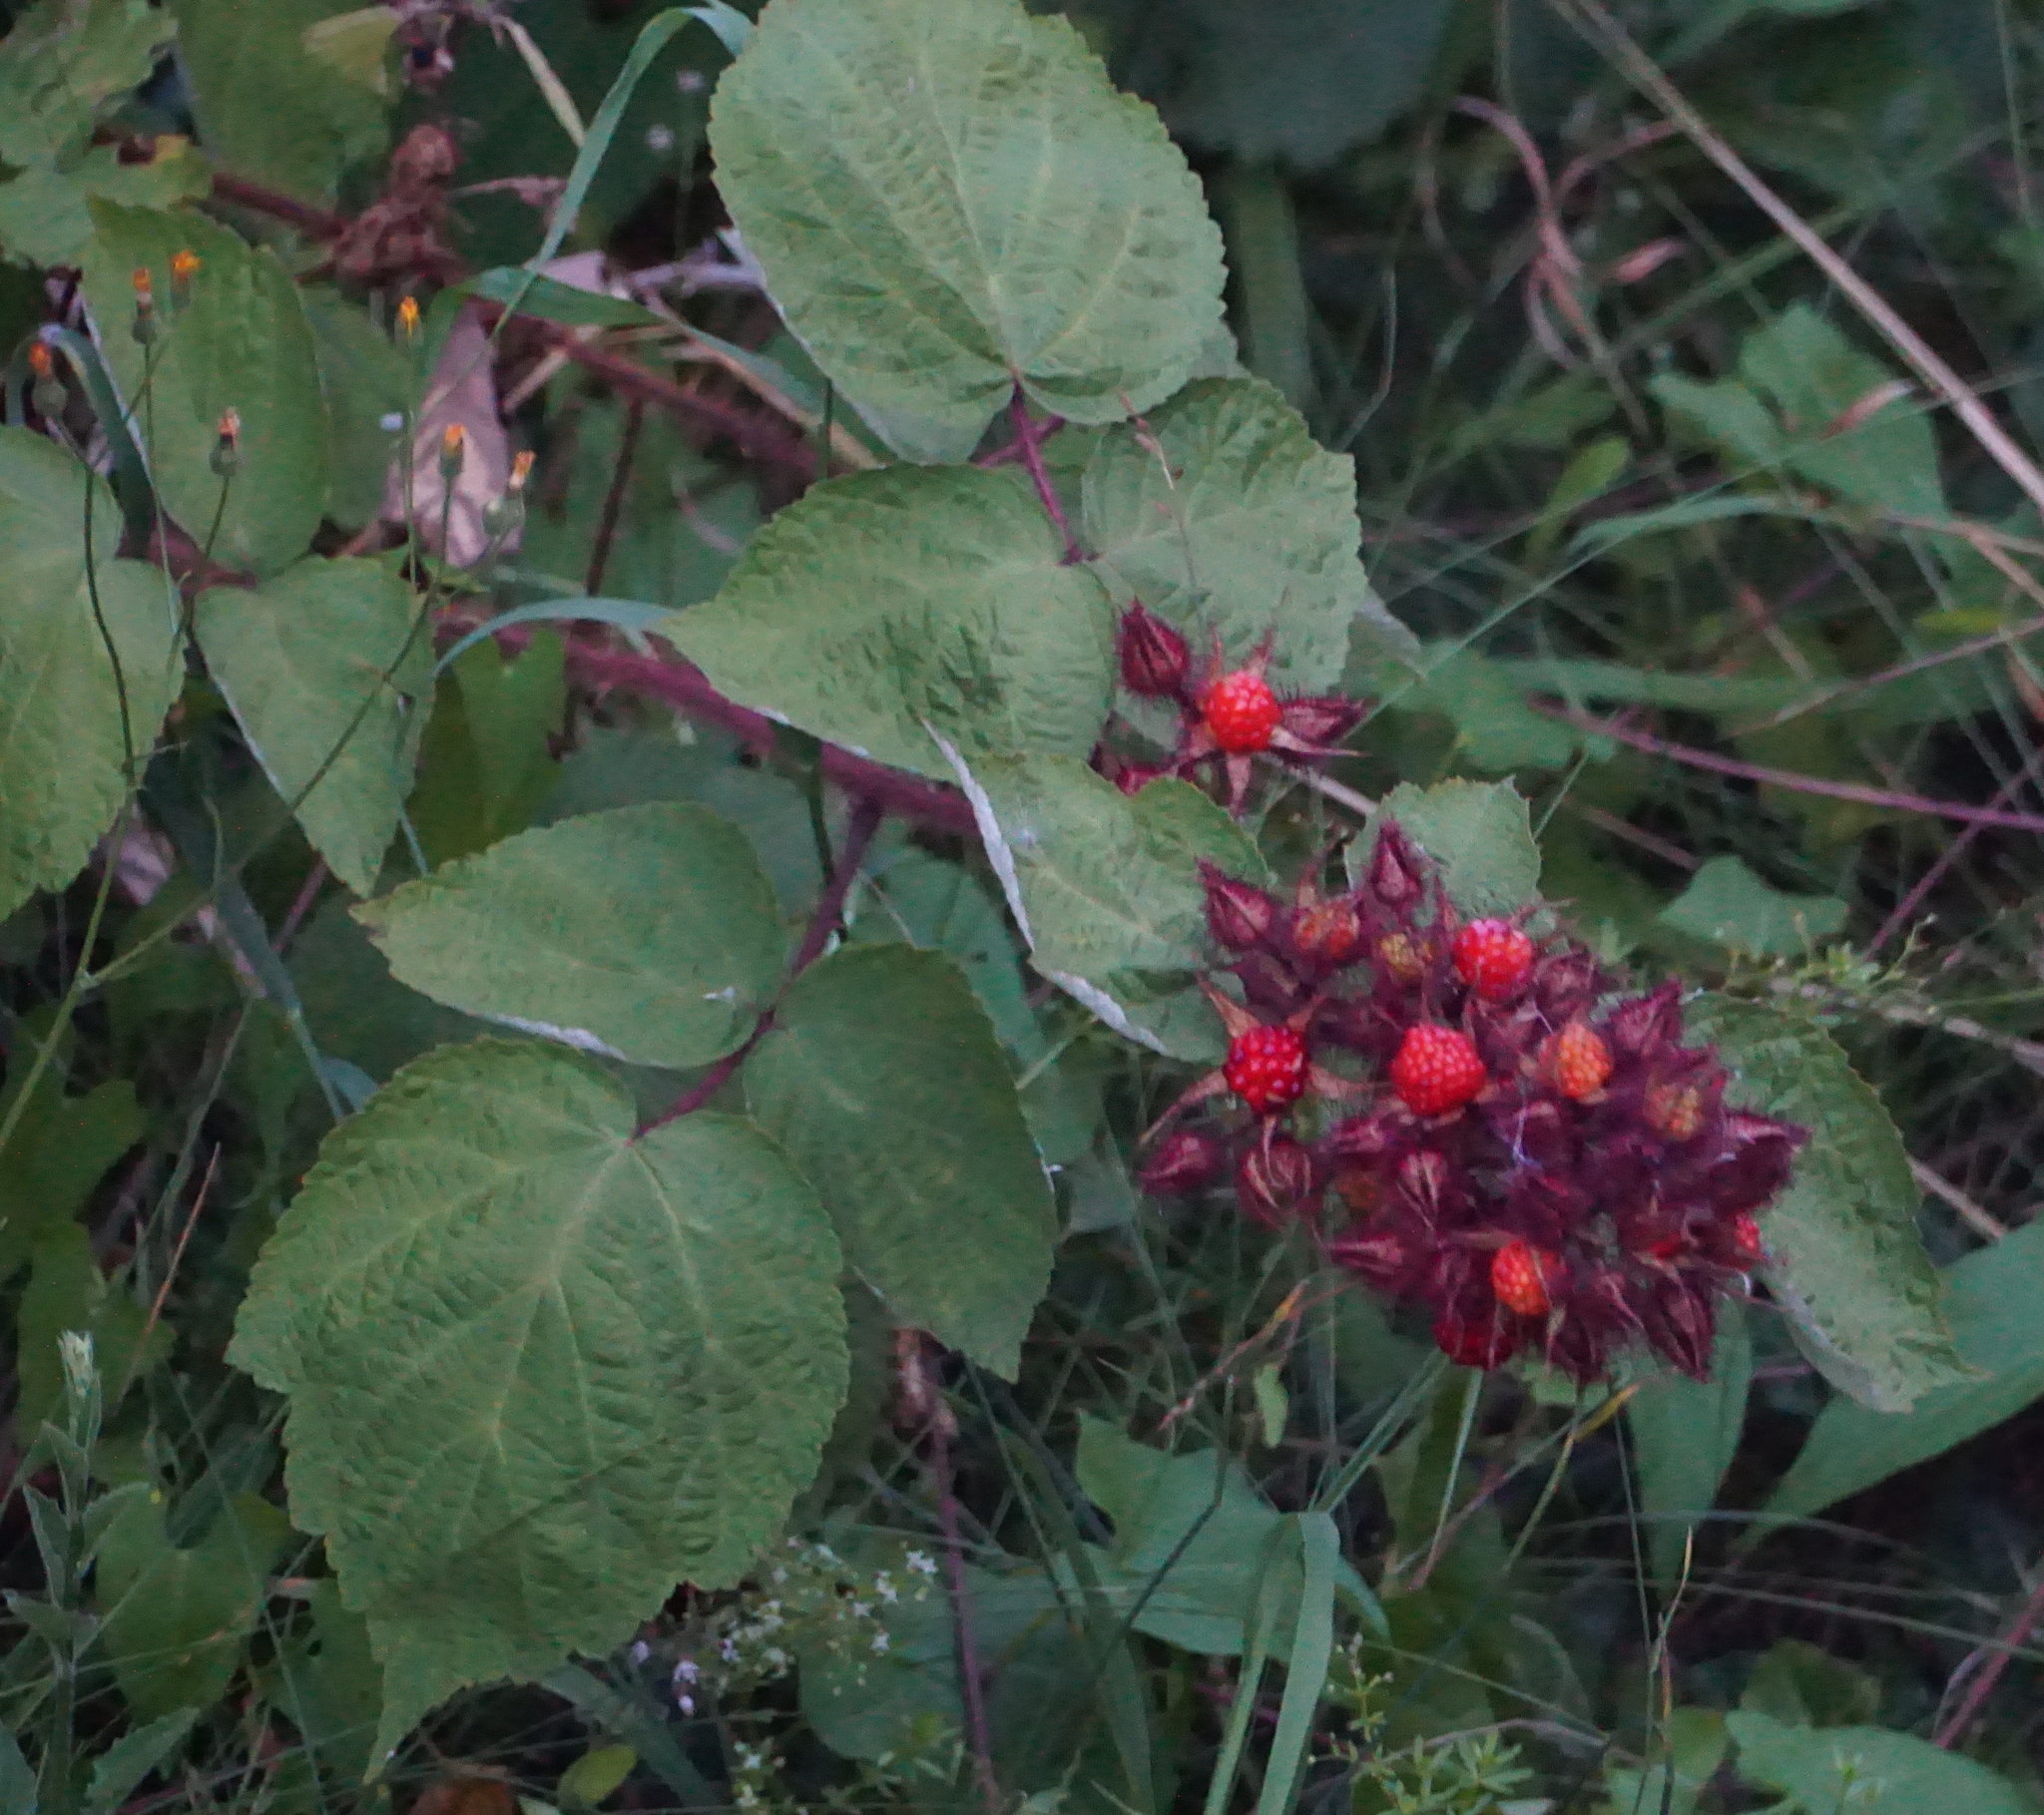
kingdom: Plantae
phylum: Tracheophyta
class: Magnoliopsida
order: Rosales
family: Rosaceae
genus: Rubus
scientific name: Rubus phoenicolasius
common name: Japanese wineberry
